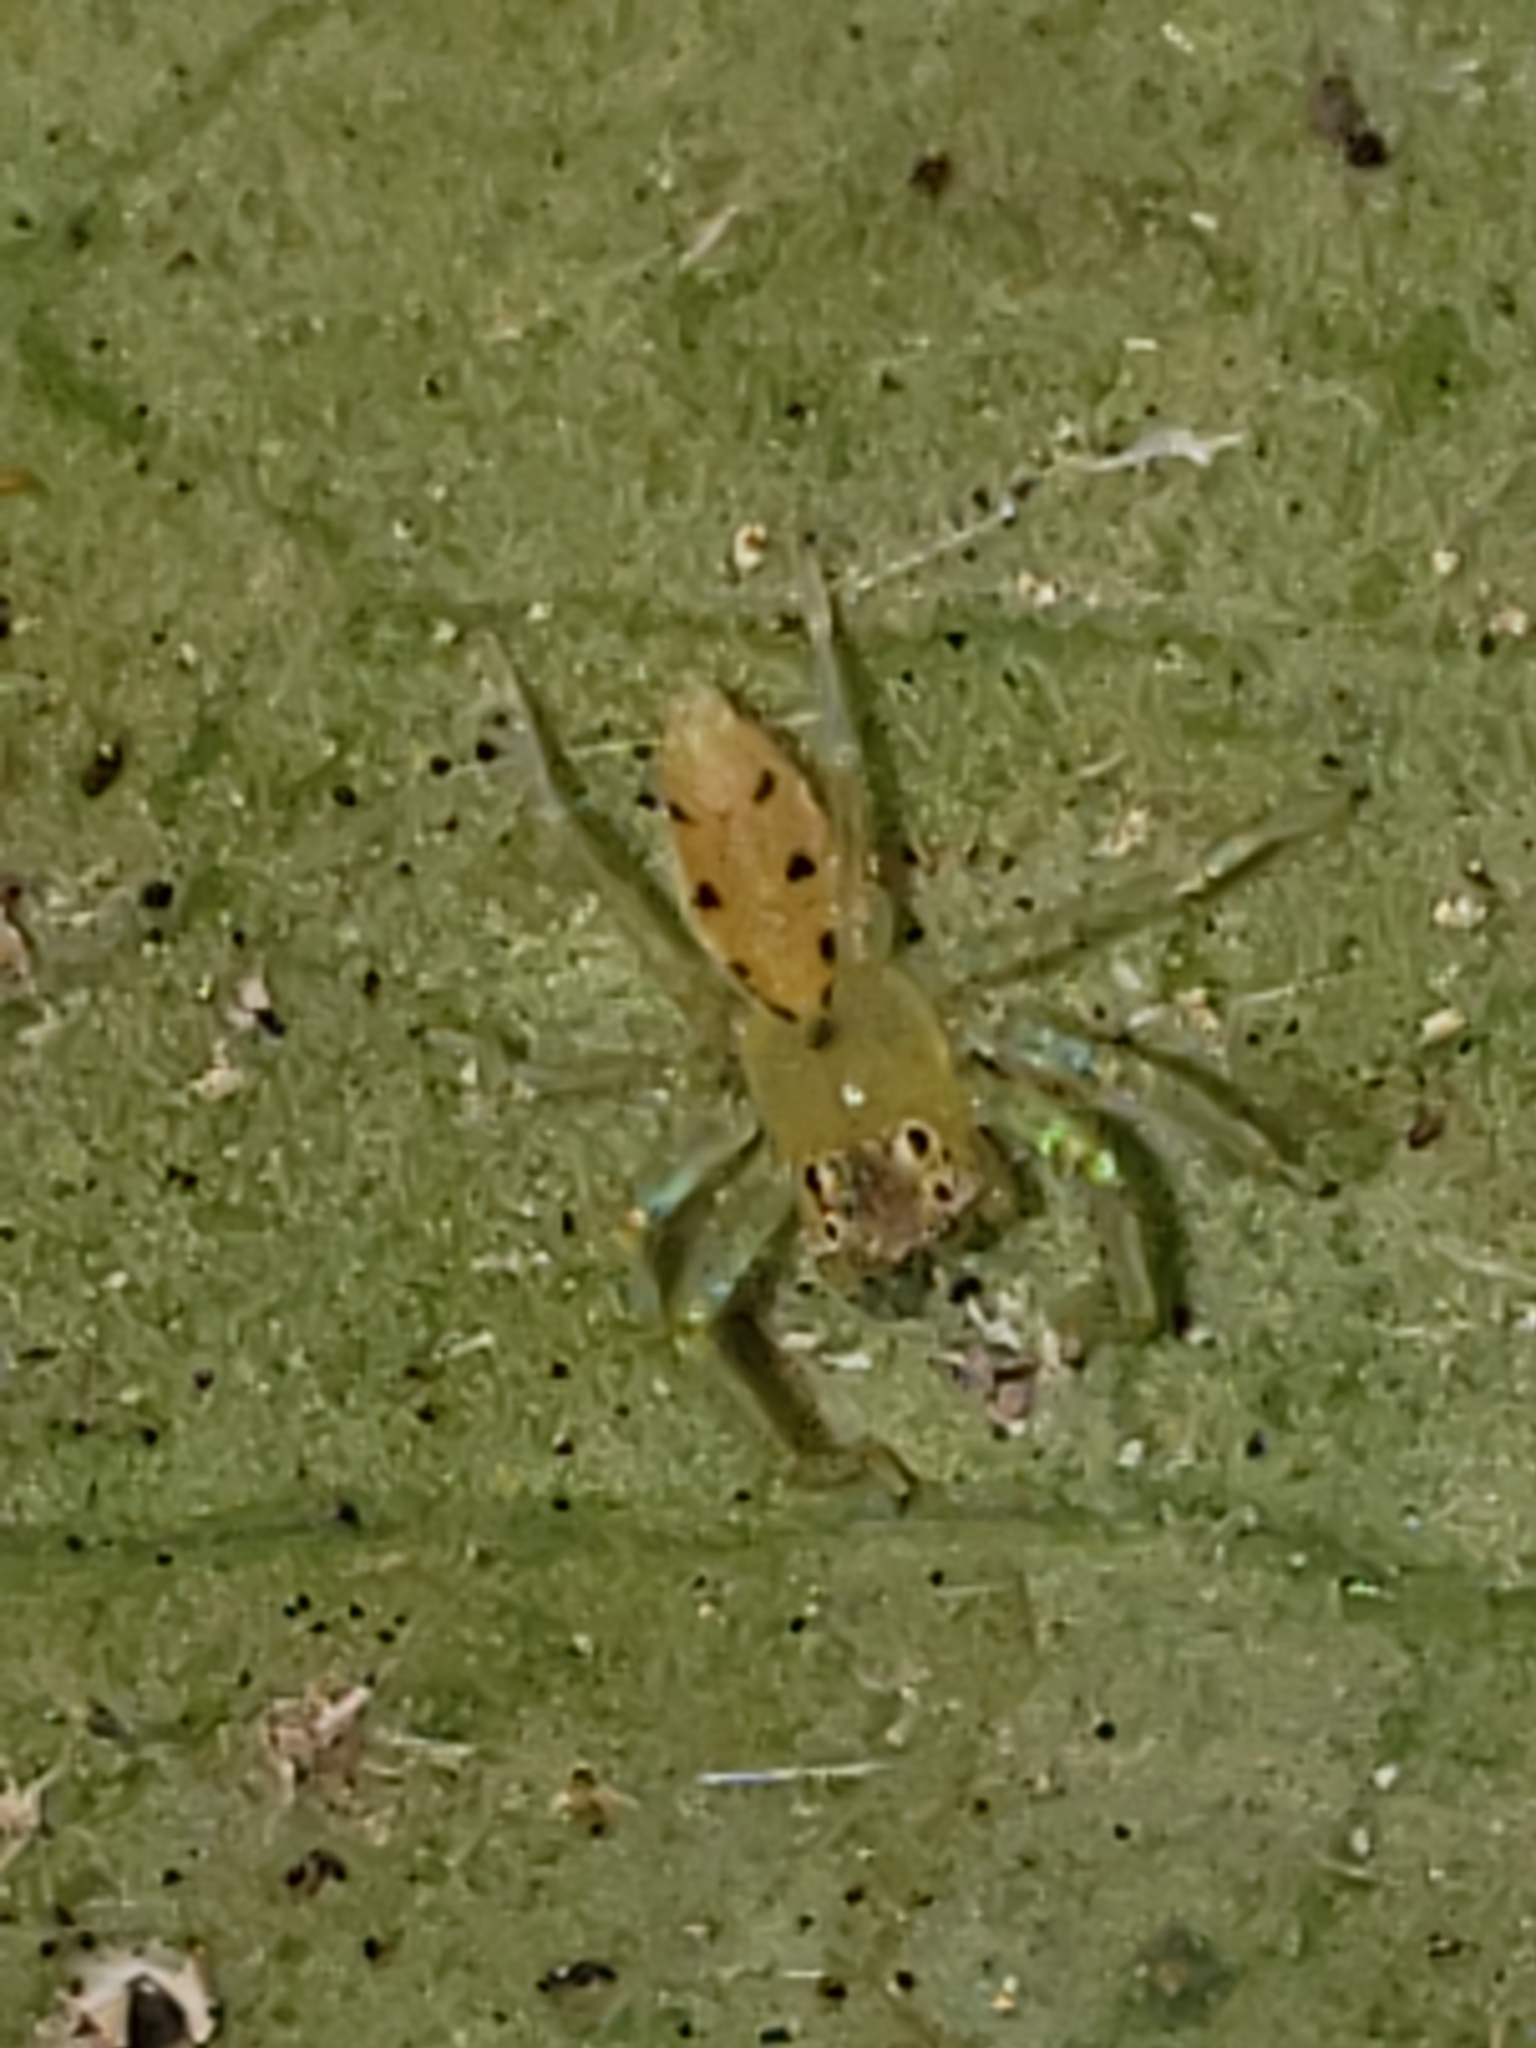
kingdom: Animalia
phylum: Arthropoda
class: Arachnida
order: Araneae
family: Salticidae
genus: Lyssomanes
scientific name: Lyssomanes viridis
